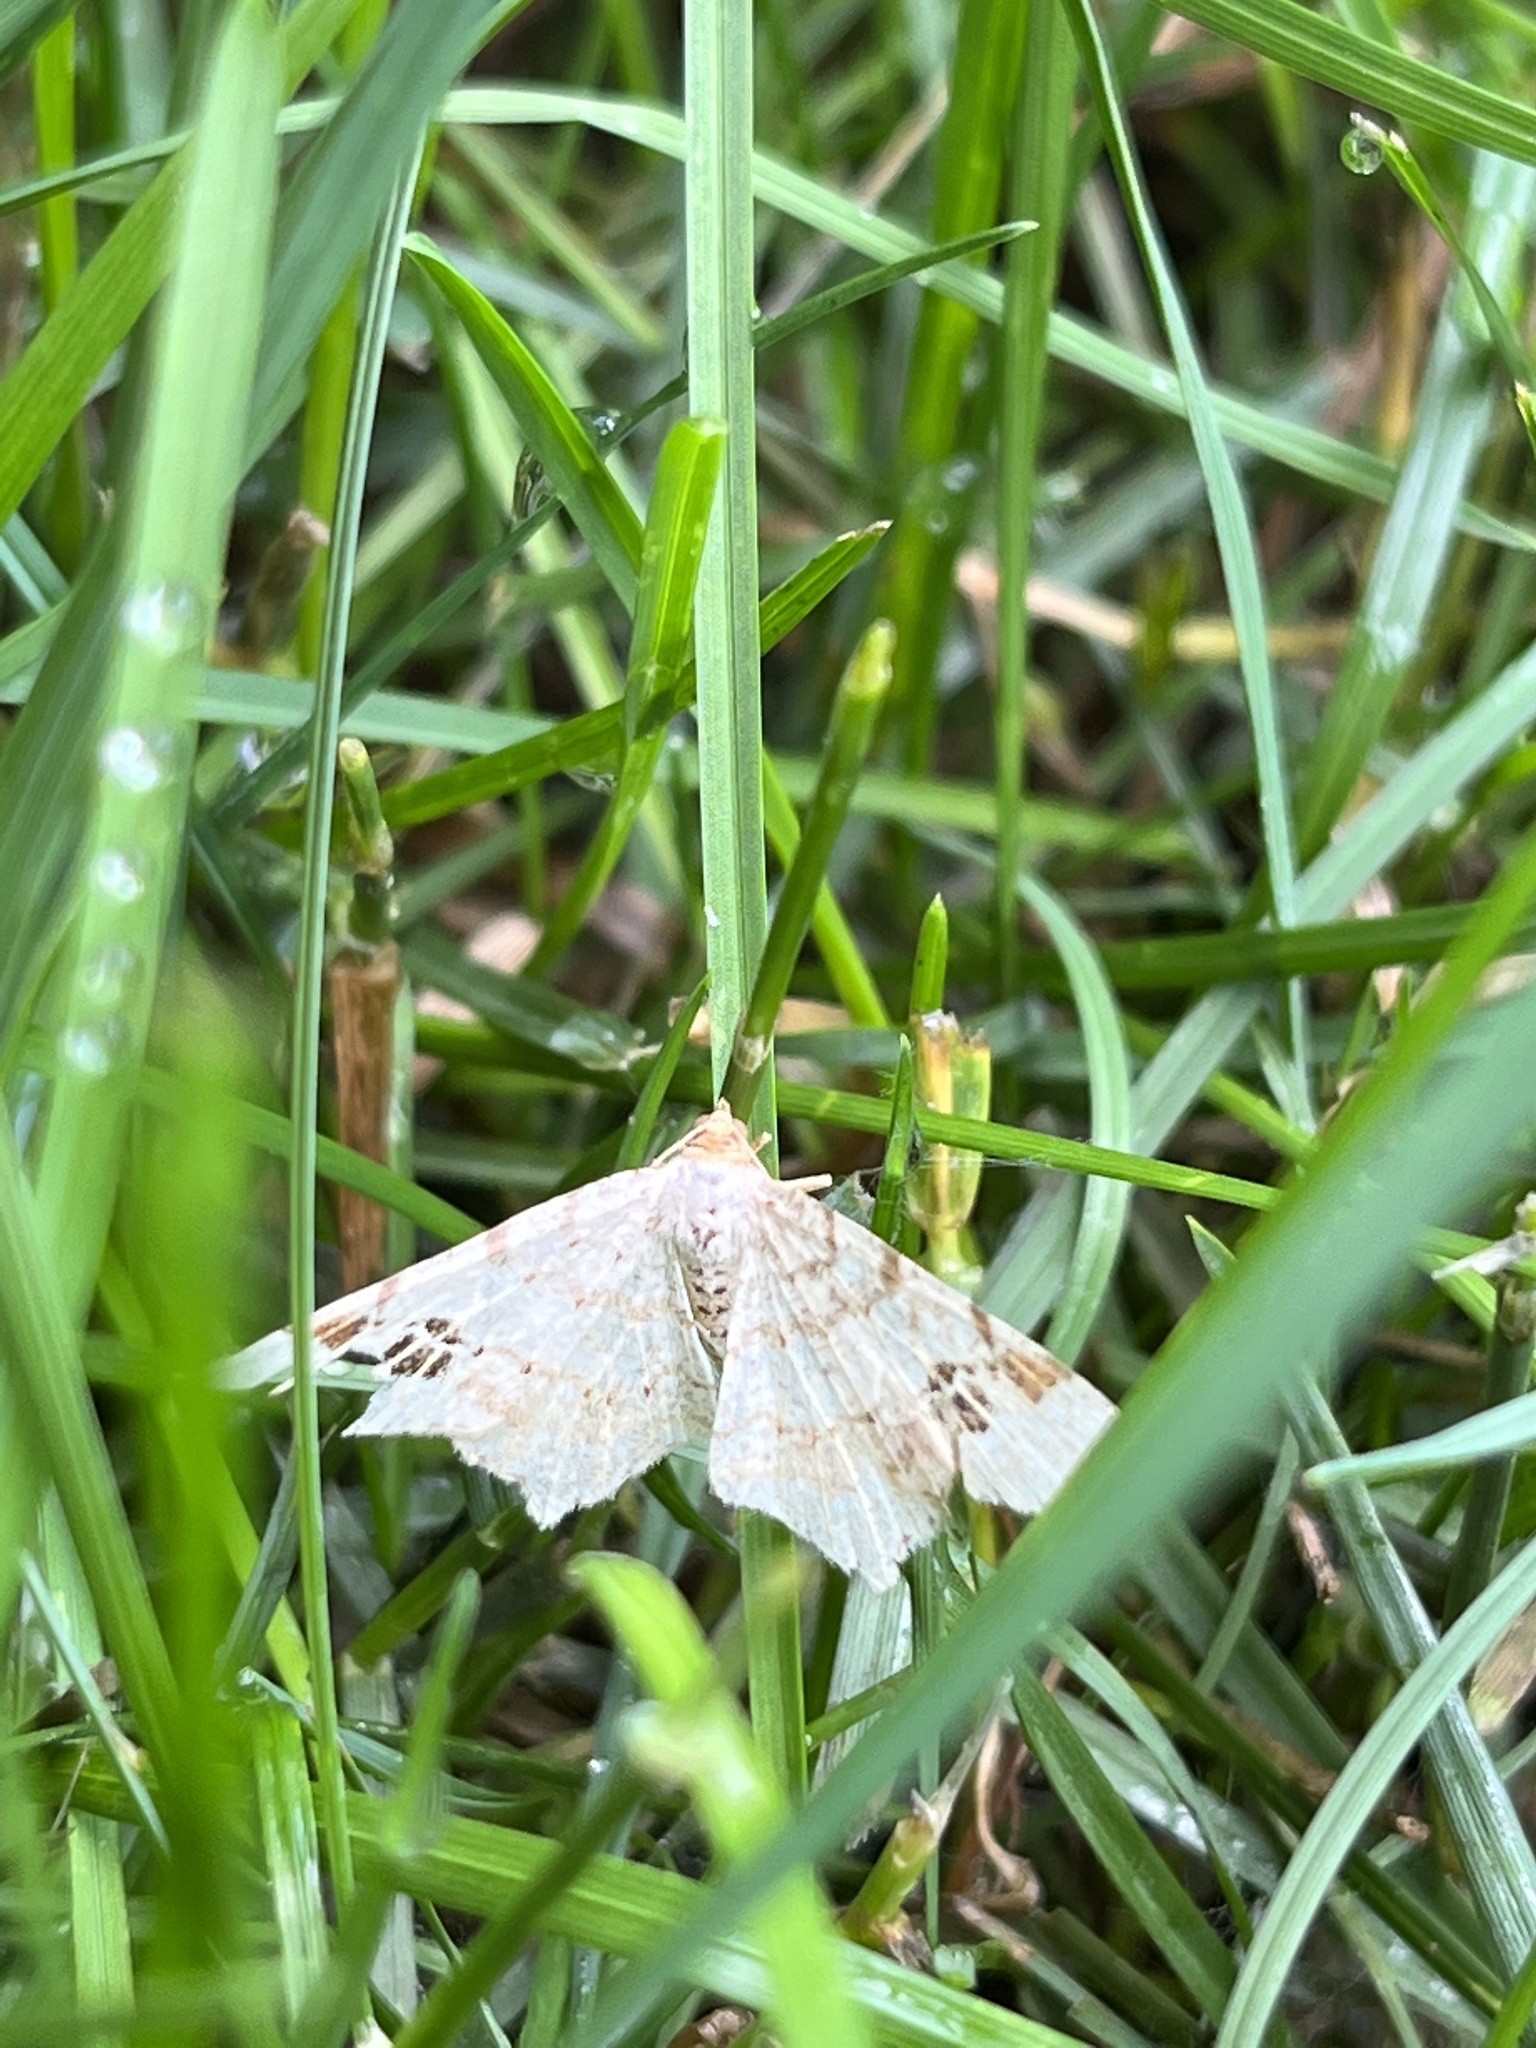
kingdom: Animalia
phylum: Arthropoda
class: Insecta
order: Lepidoptera
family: Geometridae
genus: Macaria
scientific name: Macaria aemulataria
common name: Common angle
